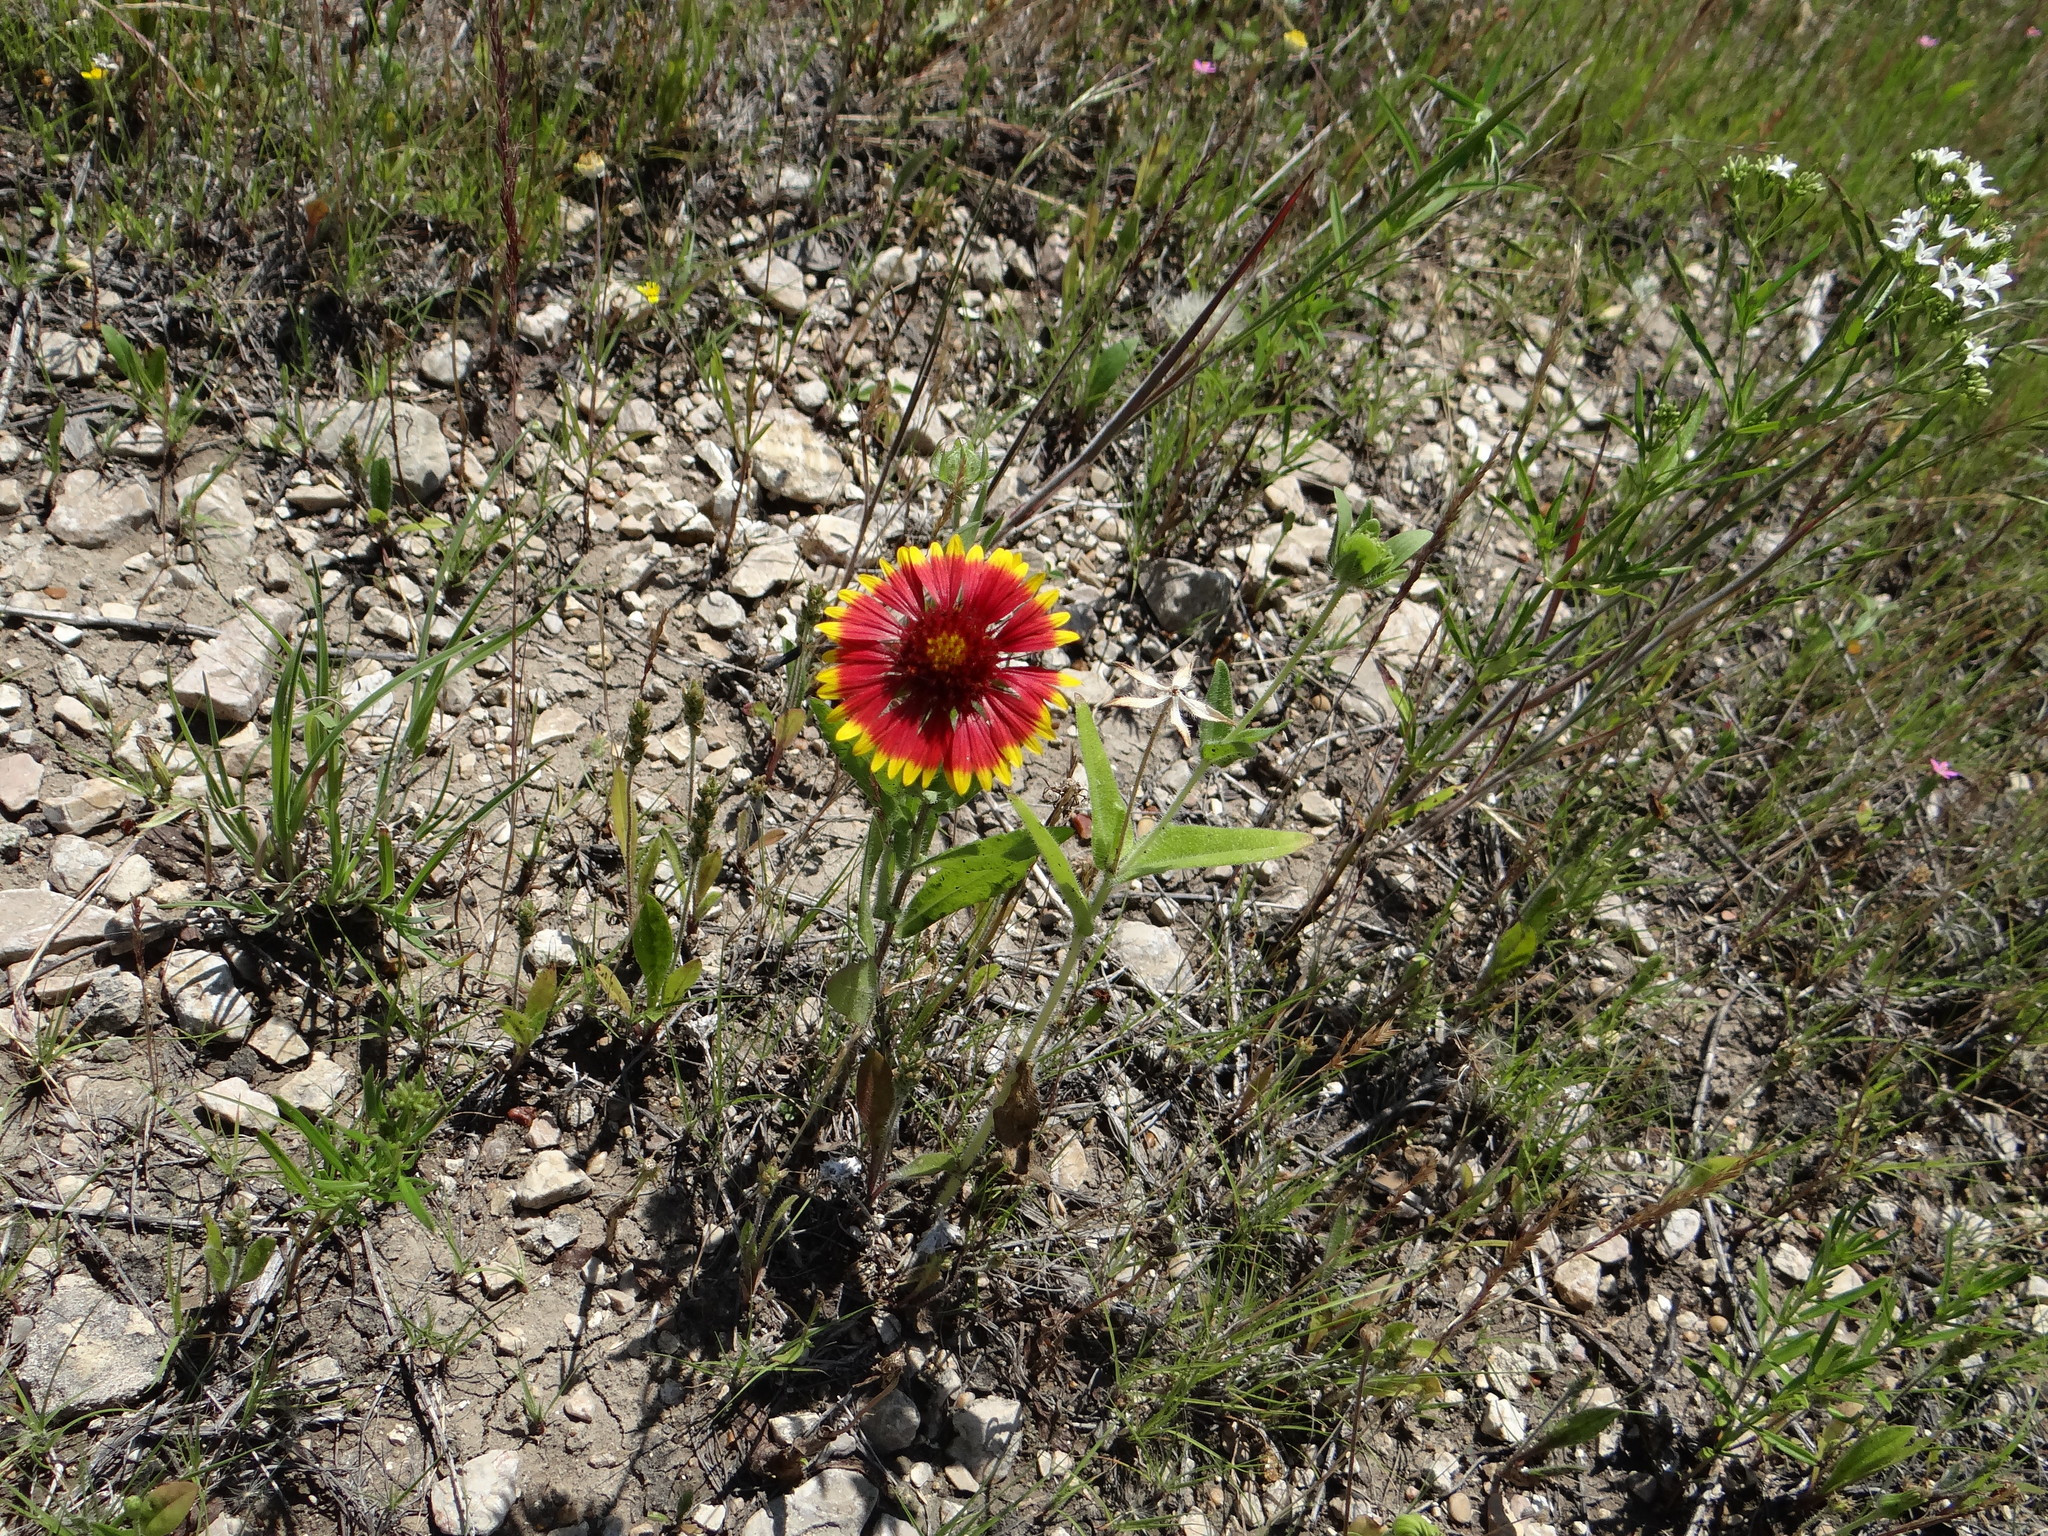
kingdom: Plantae
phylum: Tracheophyta
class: Magnoliopsida
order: Asterales
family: Asteraceae
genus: Gaillardia
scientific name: Gaillardia pulchella
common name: Firewheel
